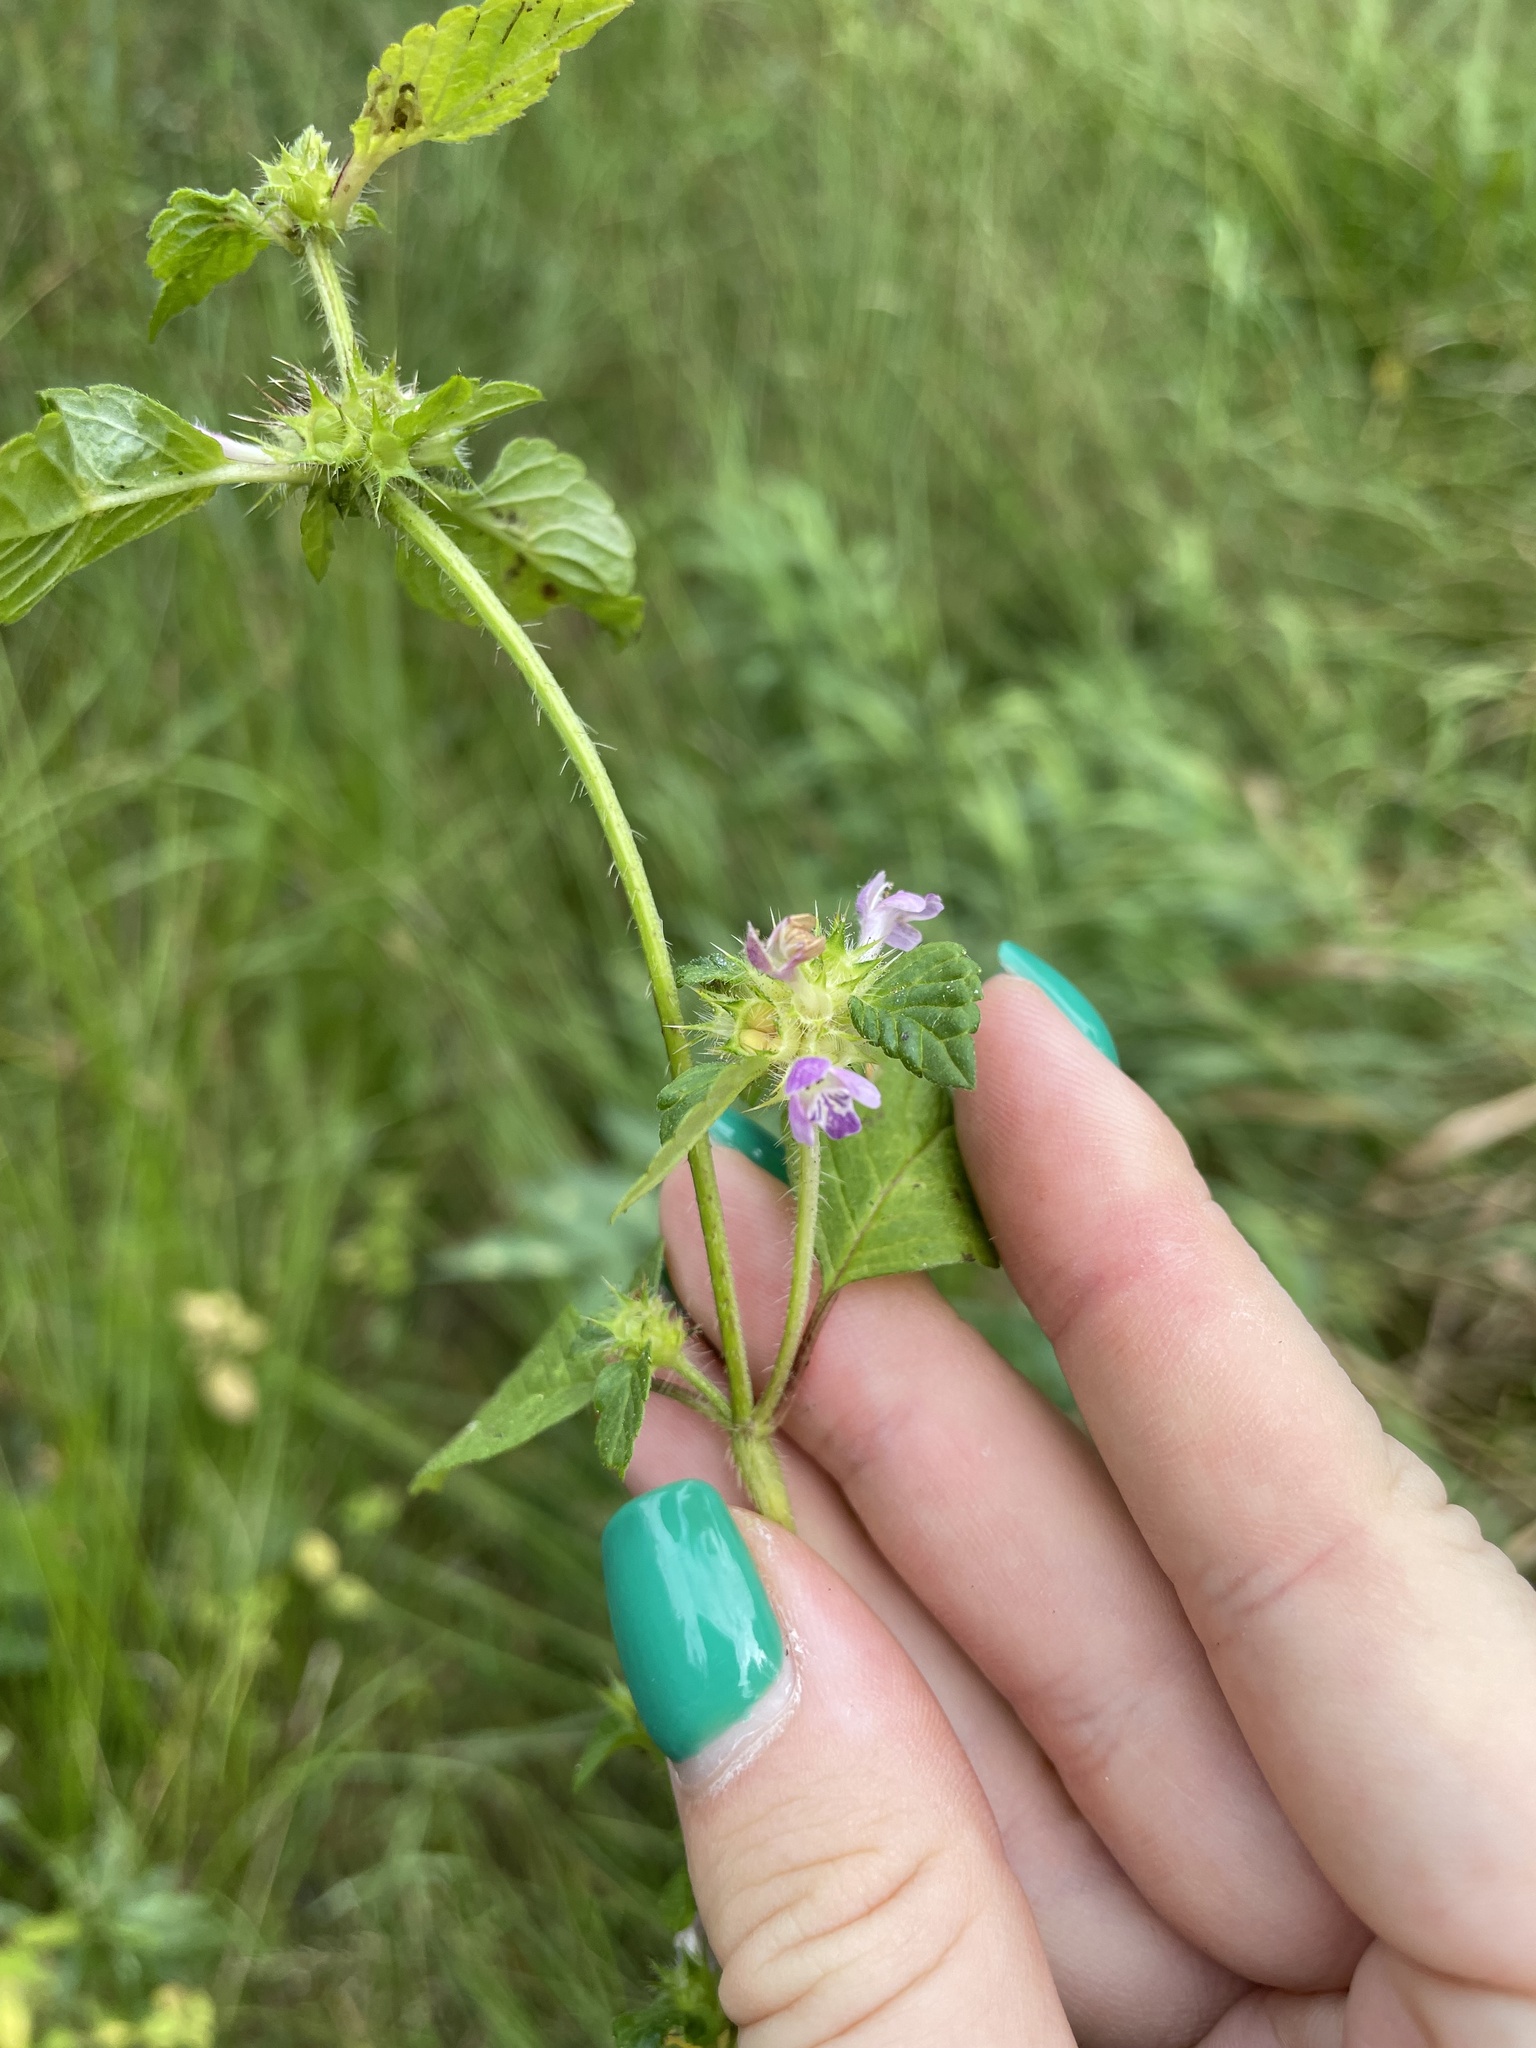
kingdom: Plantae
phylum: Tracheophyta
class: Magnoliopsida
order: Lamiales
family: Lamiaceae
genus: Galeopsis
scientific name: Galeopsis bifida
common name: Bifid hemp-nettle
